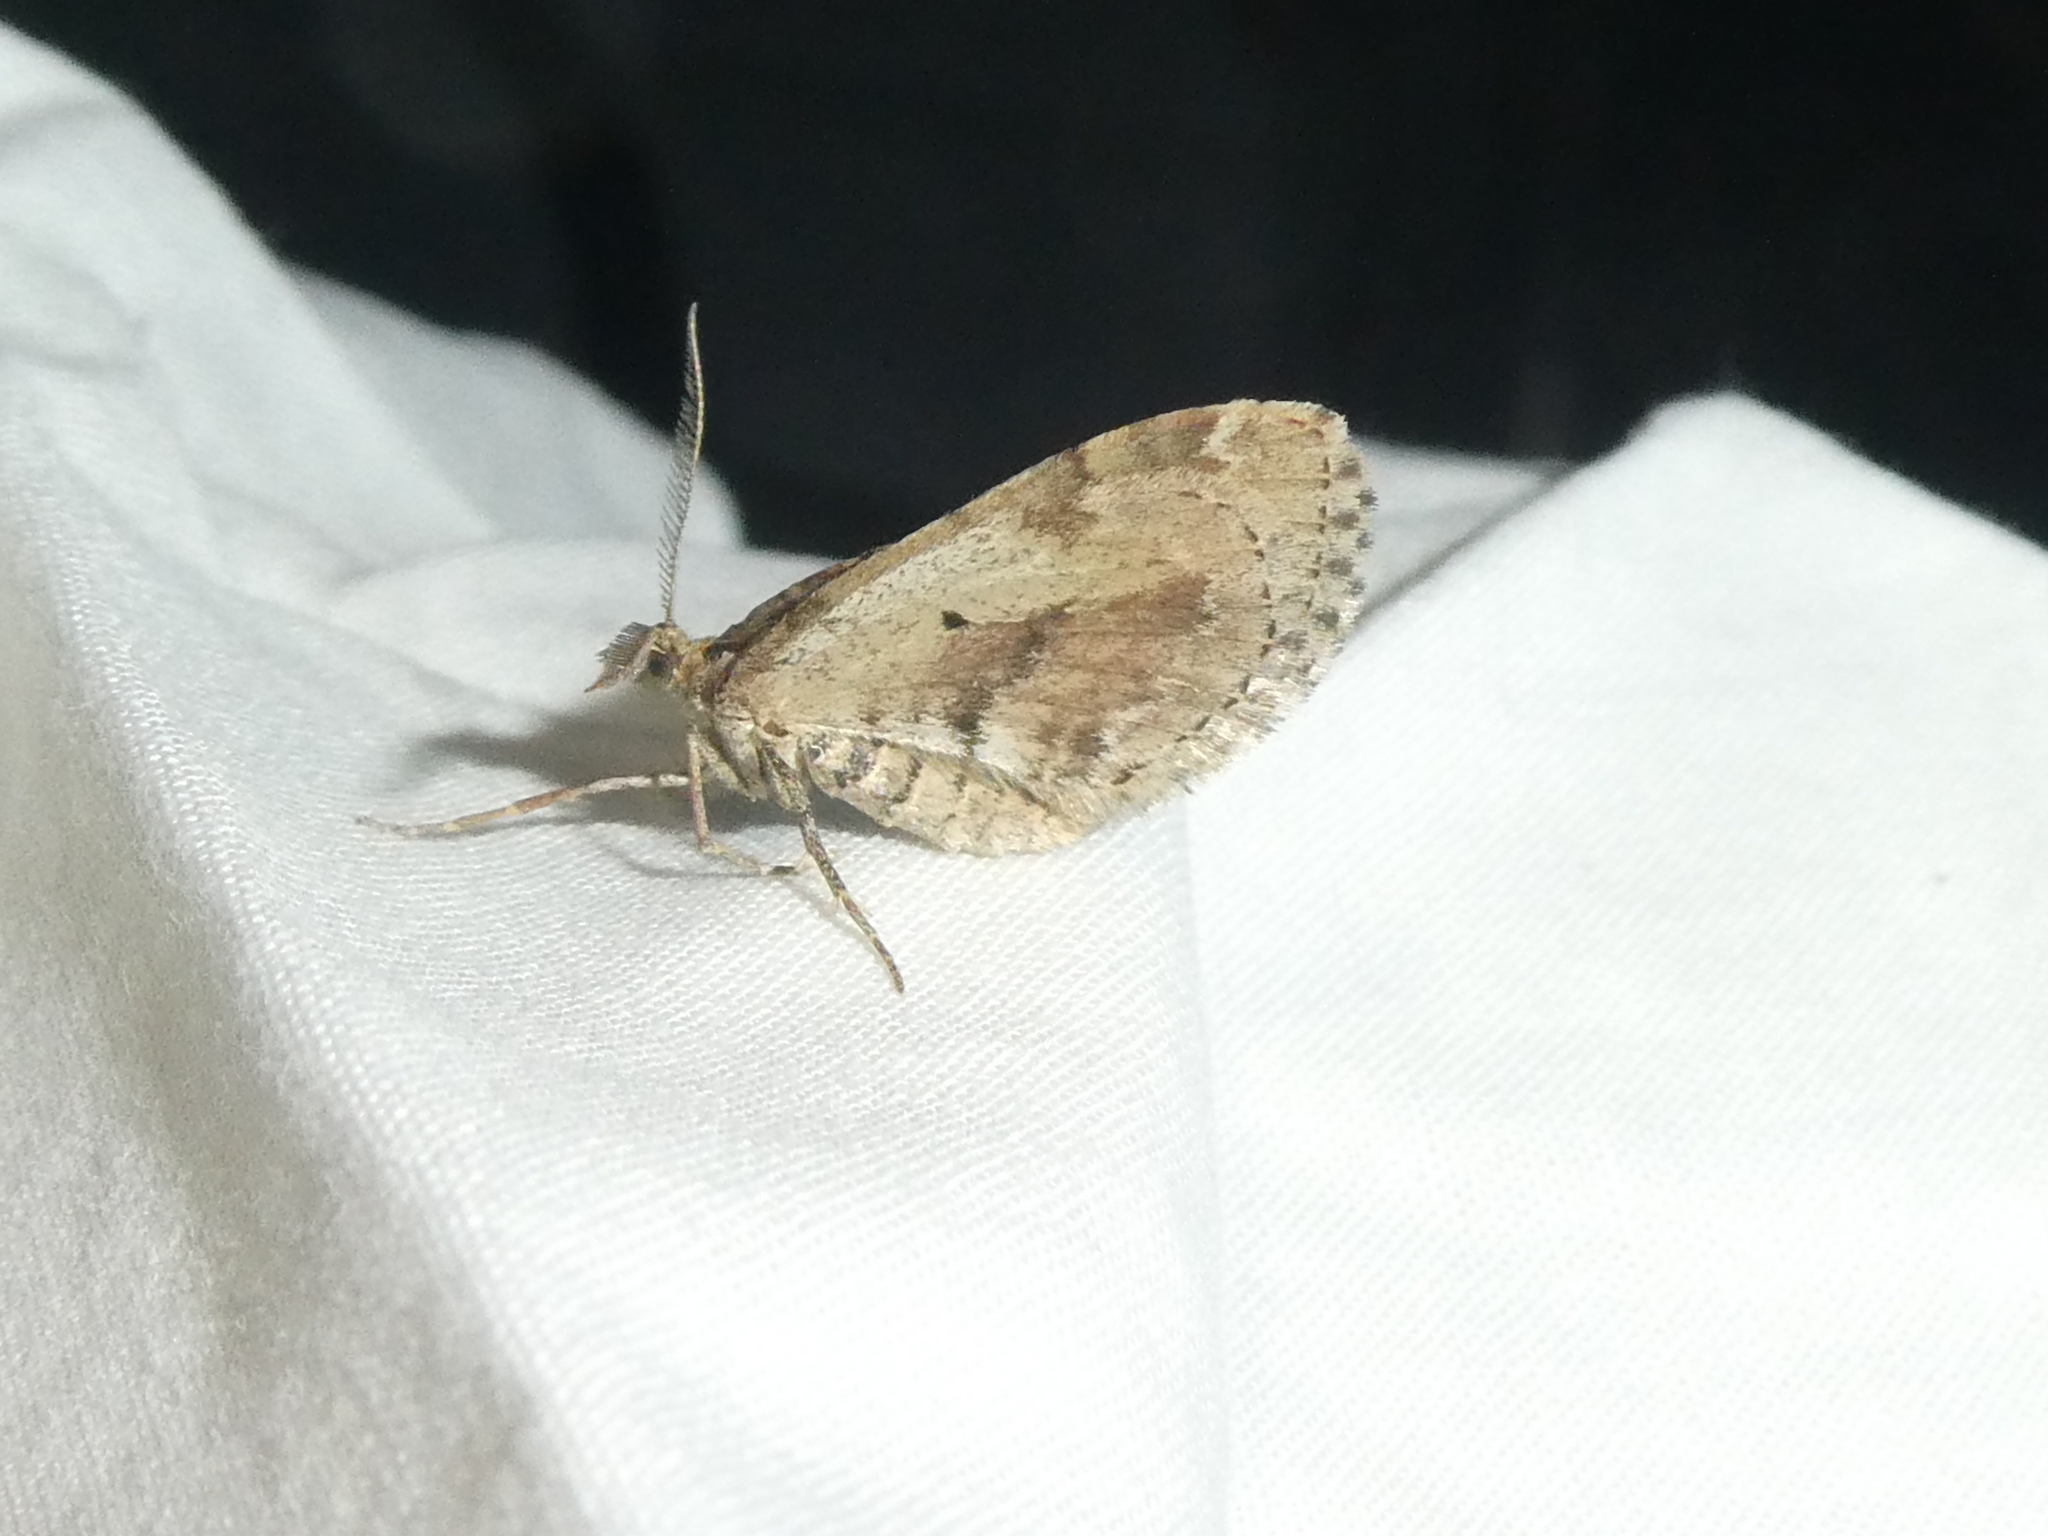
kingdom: Animalia
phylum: Arthropoda
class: Insecta
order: Lepidoptera
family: Geometridae
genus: Asaphodes
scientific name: Asaphodes aegrota
